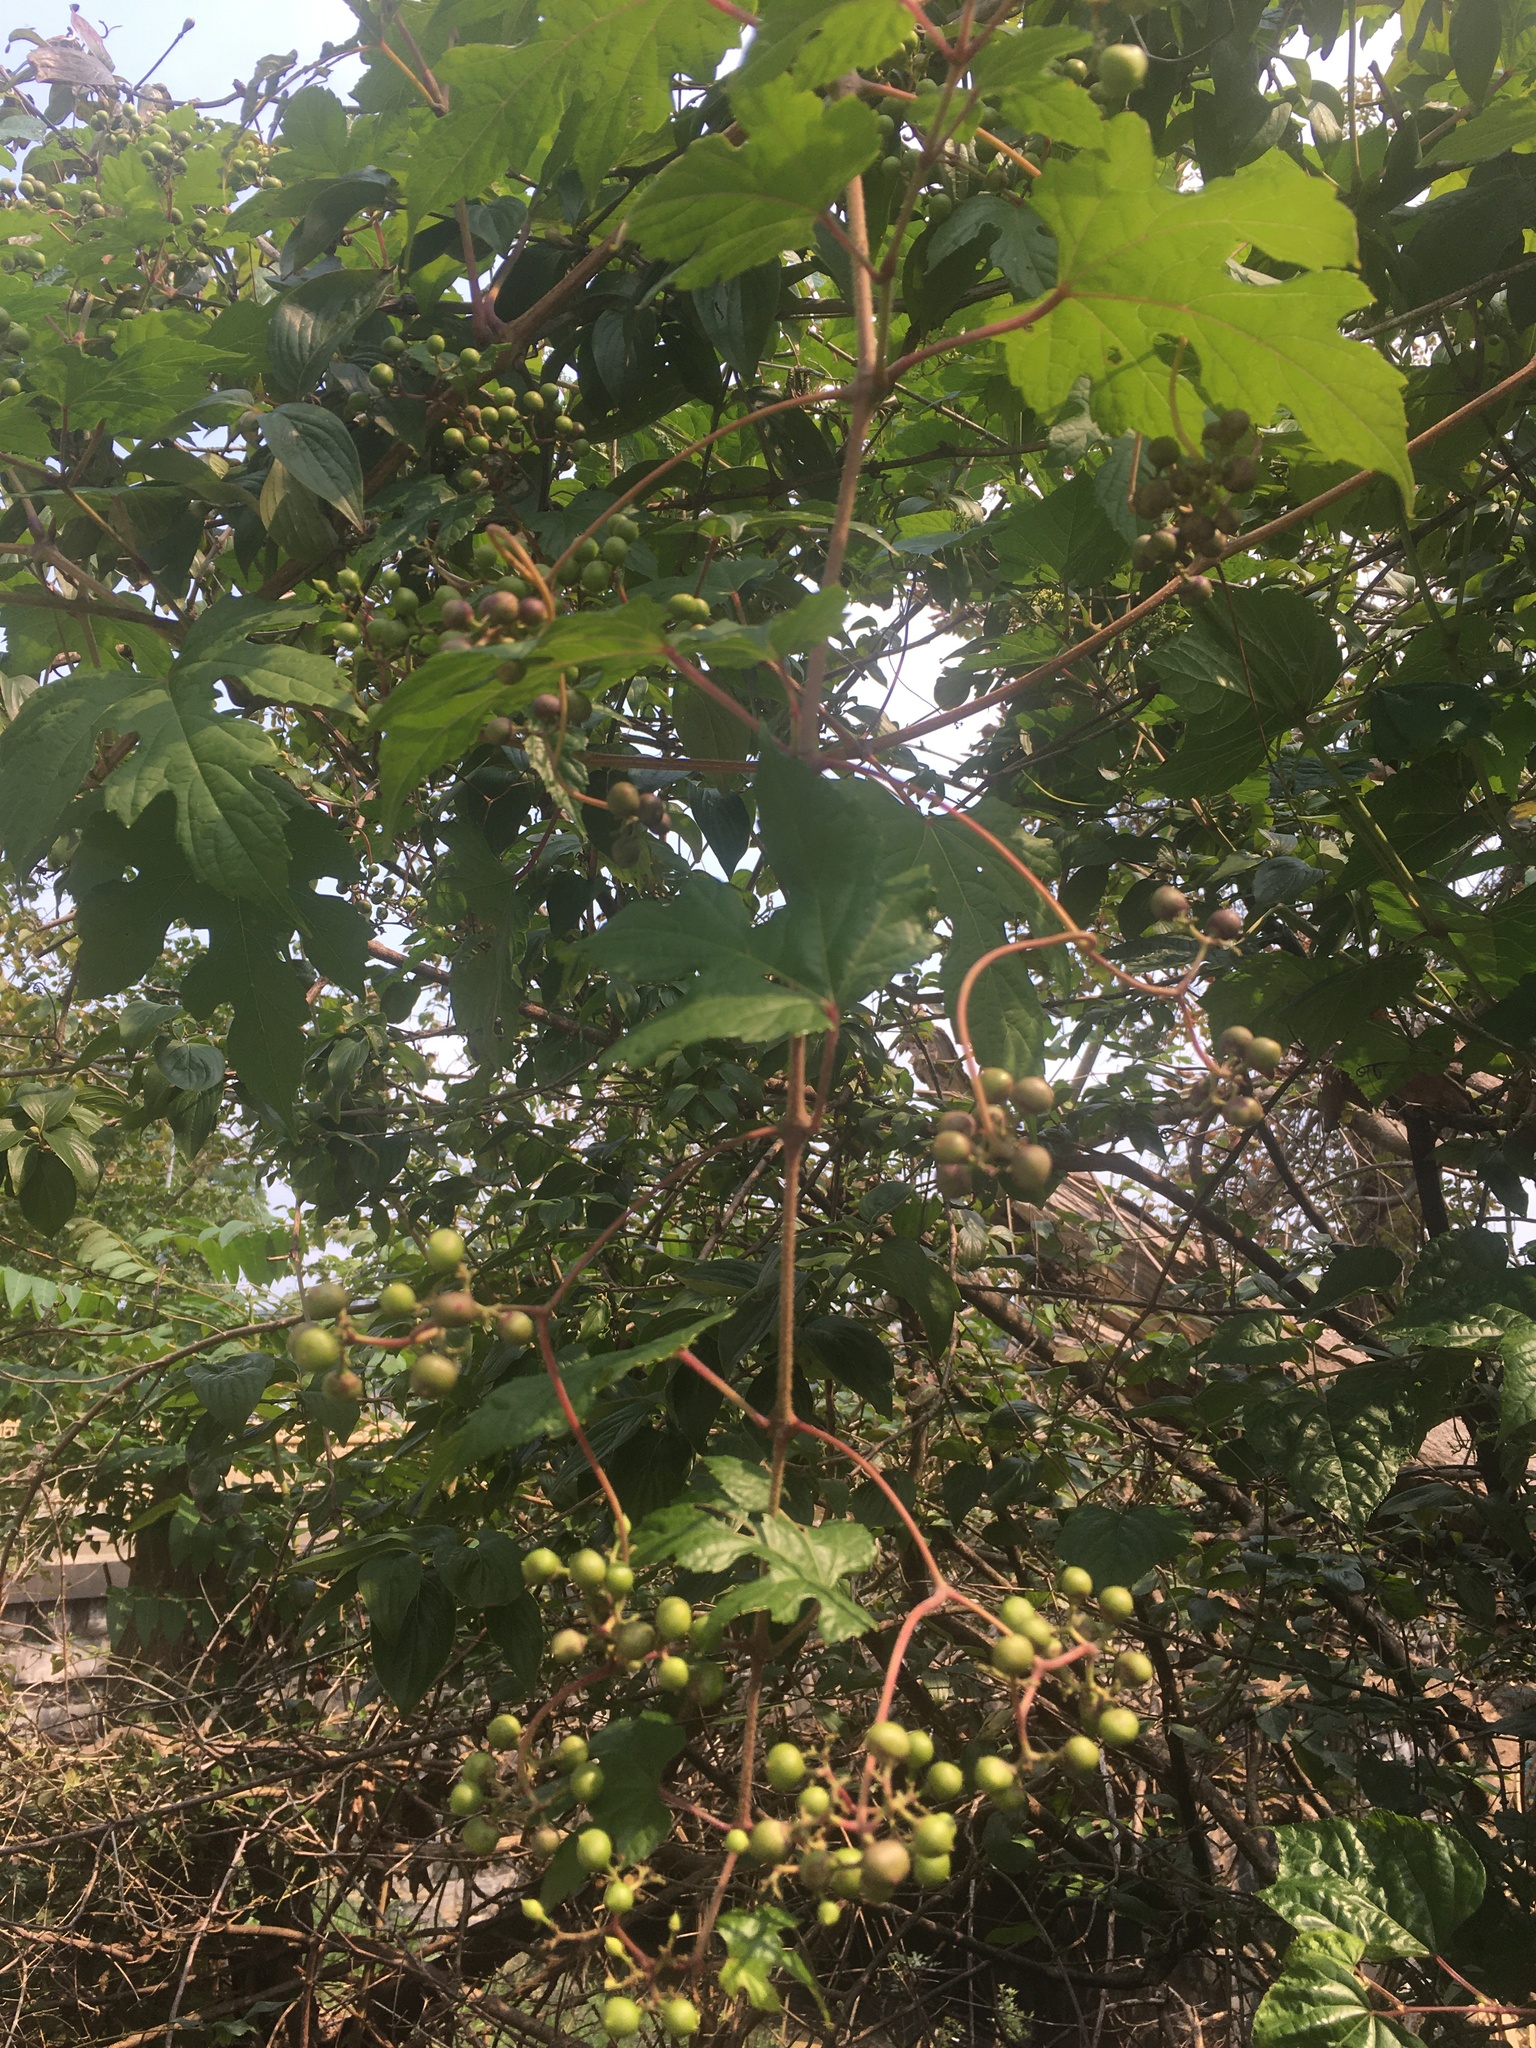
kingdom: Plantae
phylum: Tracheophyta
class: Magnoliopsida
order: Vitales
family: Vitaceae
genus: Ampelopsis
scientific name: Ampelopsis glandulosa
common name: Amur peppervine
